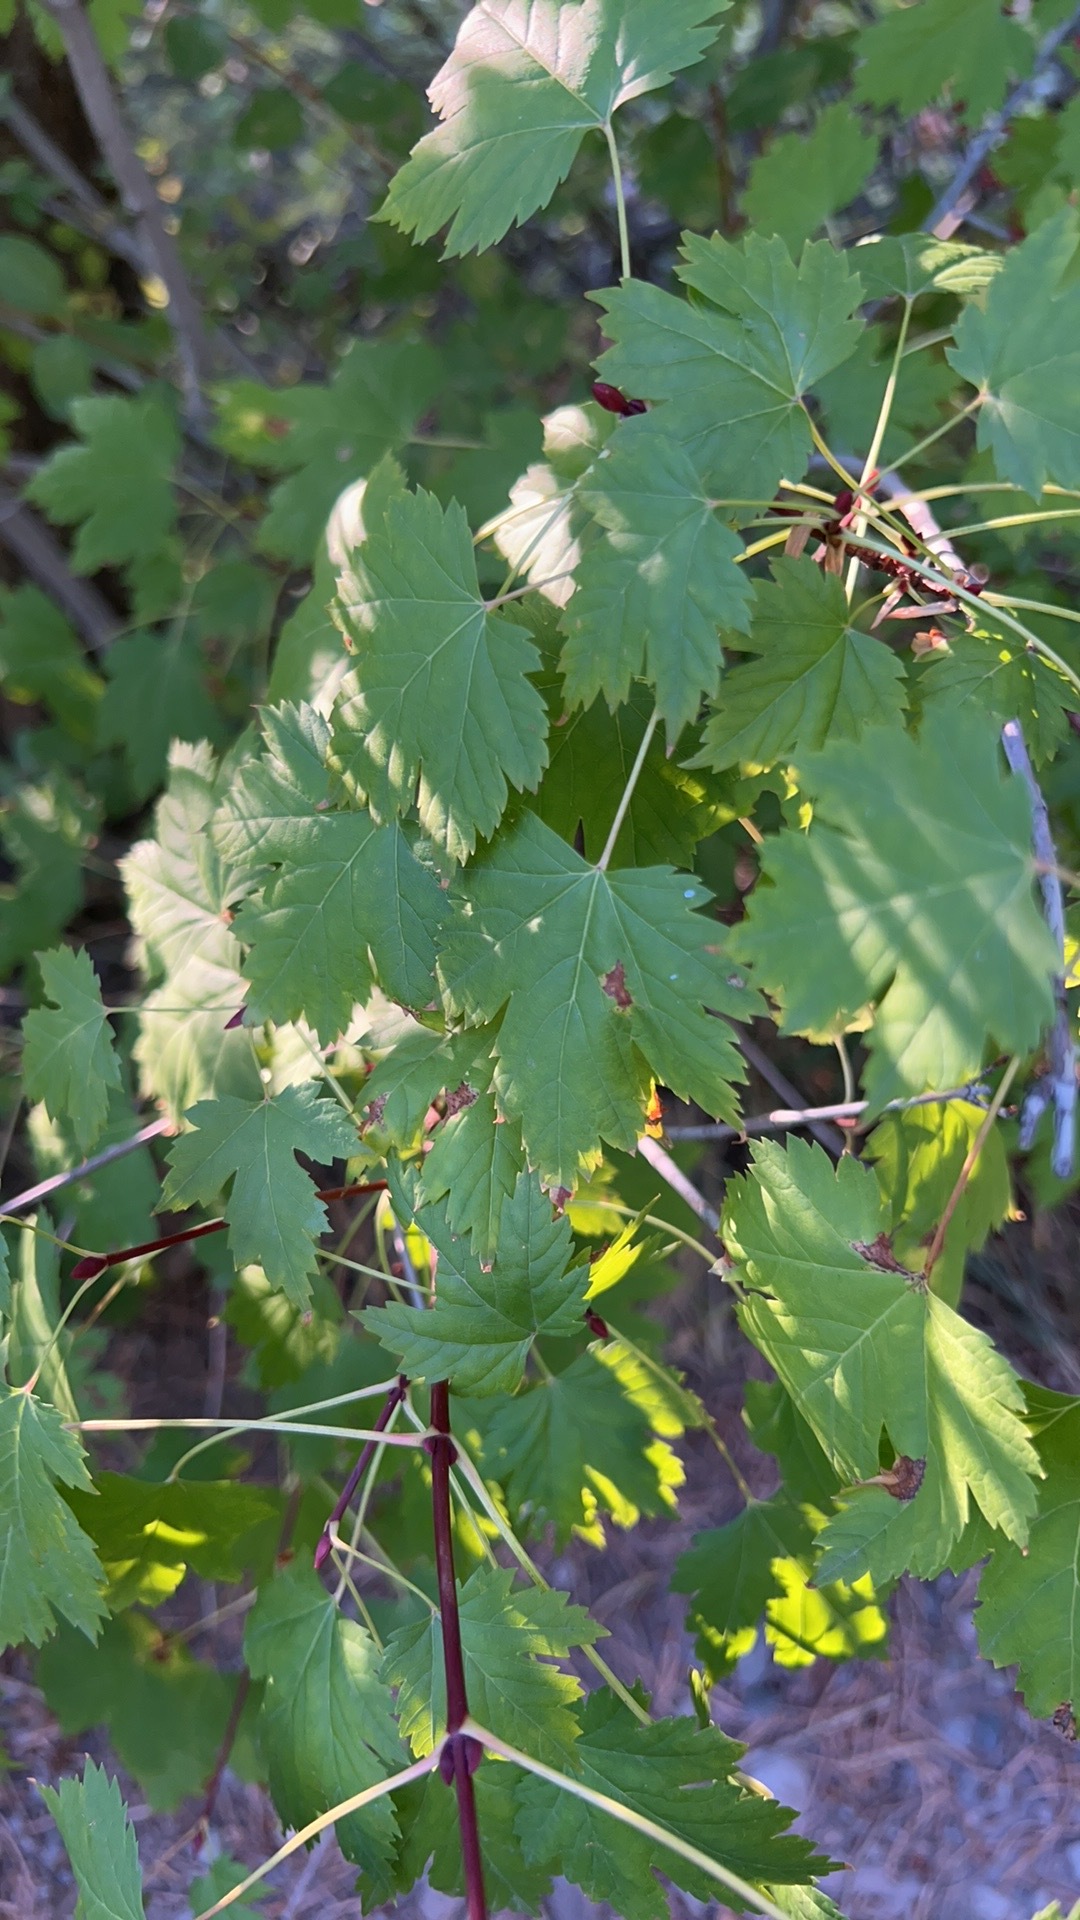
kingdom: Plantae
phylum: Tracheophyta
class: Magnoliopsida
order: Sapindales
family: Sapindaceae
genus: Acer
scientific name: Acer glabrum
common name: Rocky mountain maple
